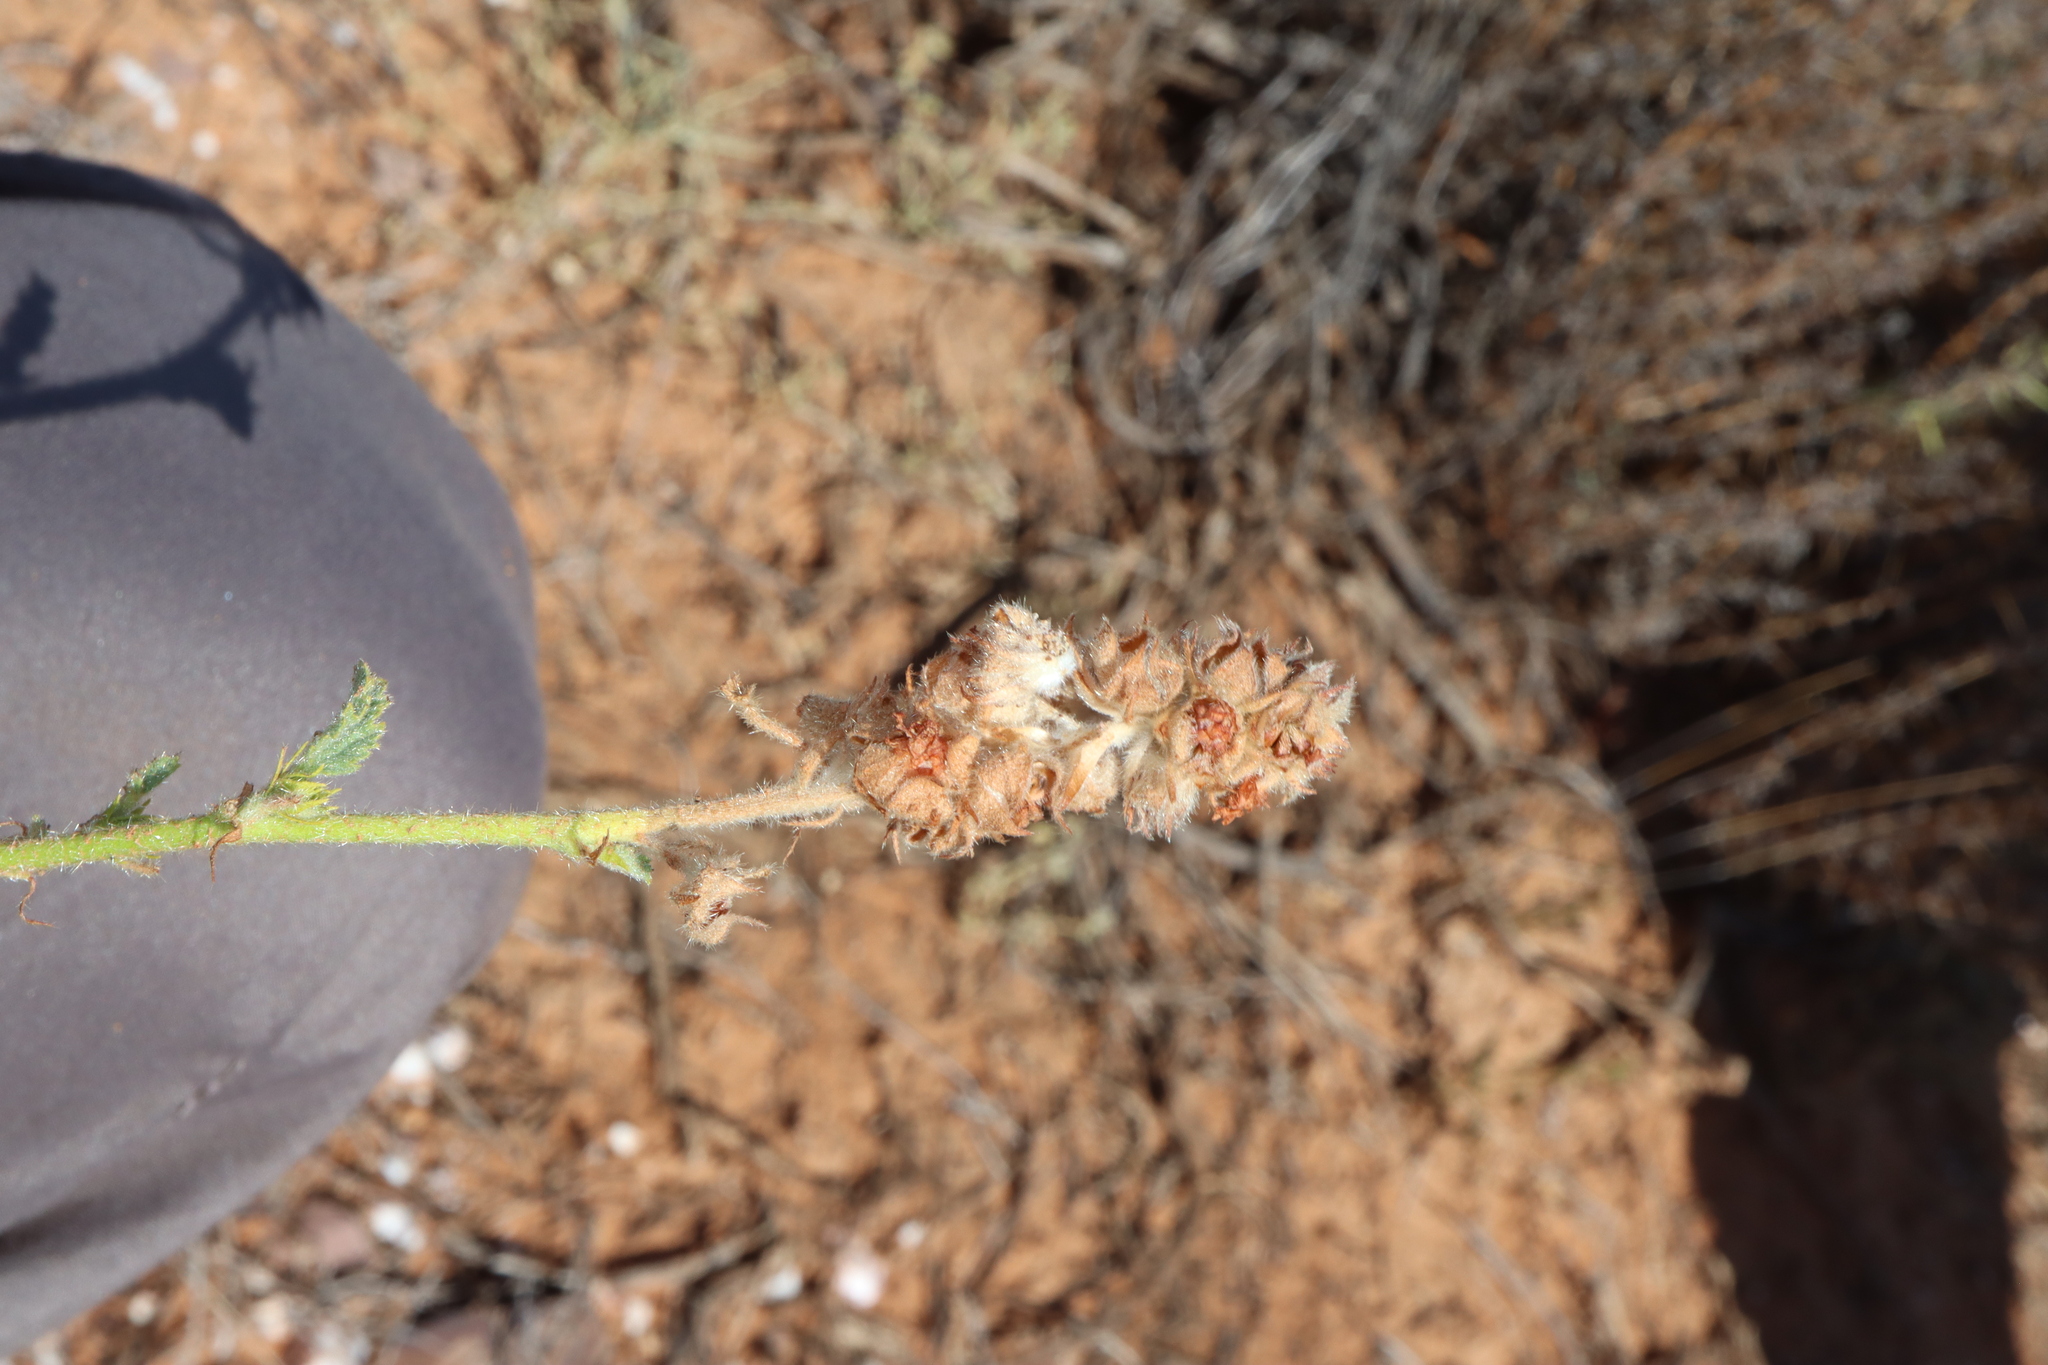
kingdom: Plantae
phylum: Tracheophyta
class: Magnoliopsida
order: Malvales
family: Malvaceae
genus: Malvastrum
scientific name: Malvastrum americanum
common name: Spiked malvastrum
